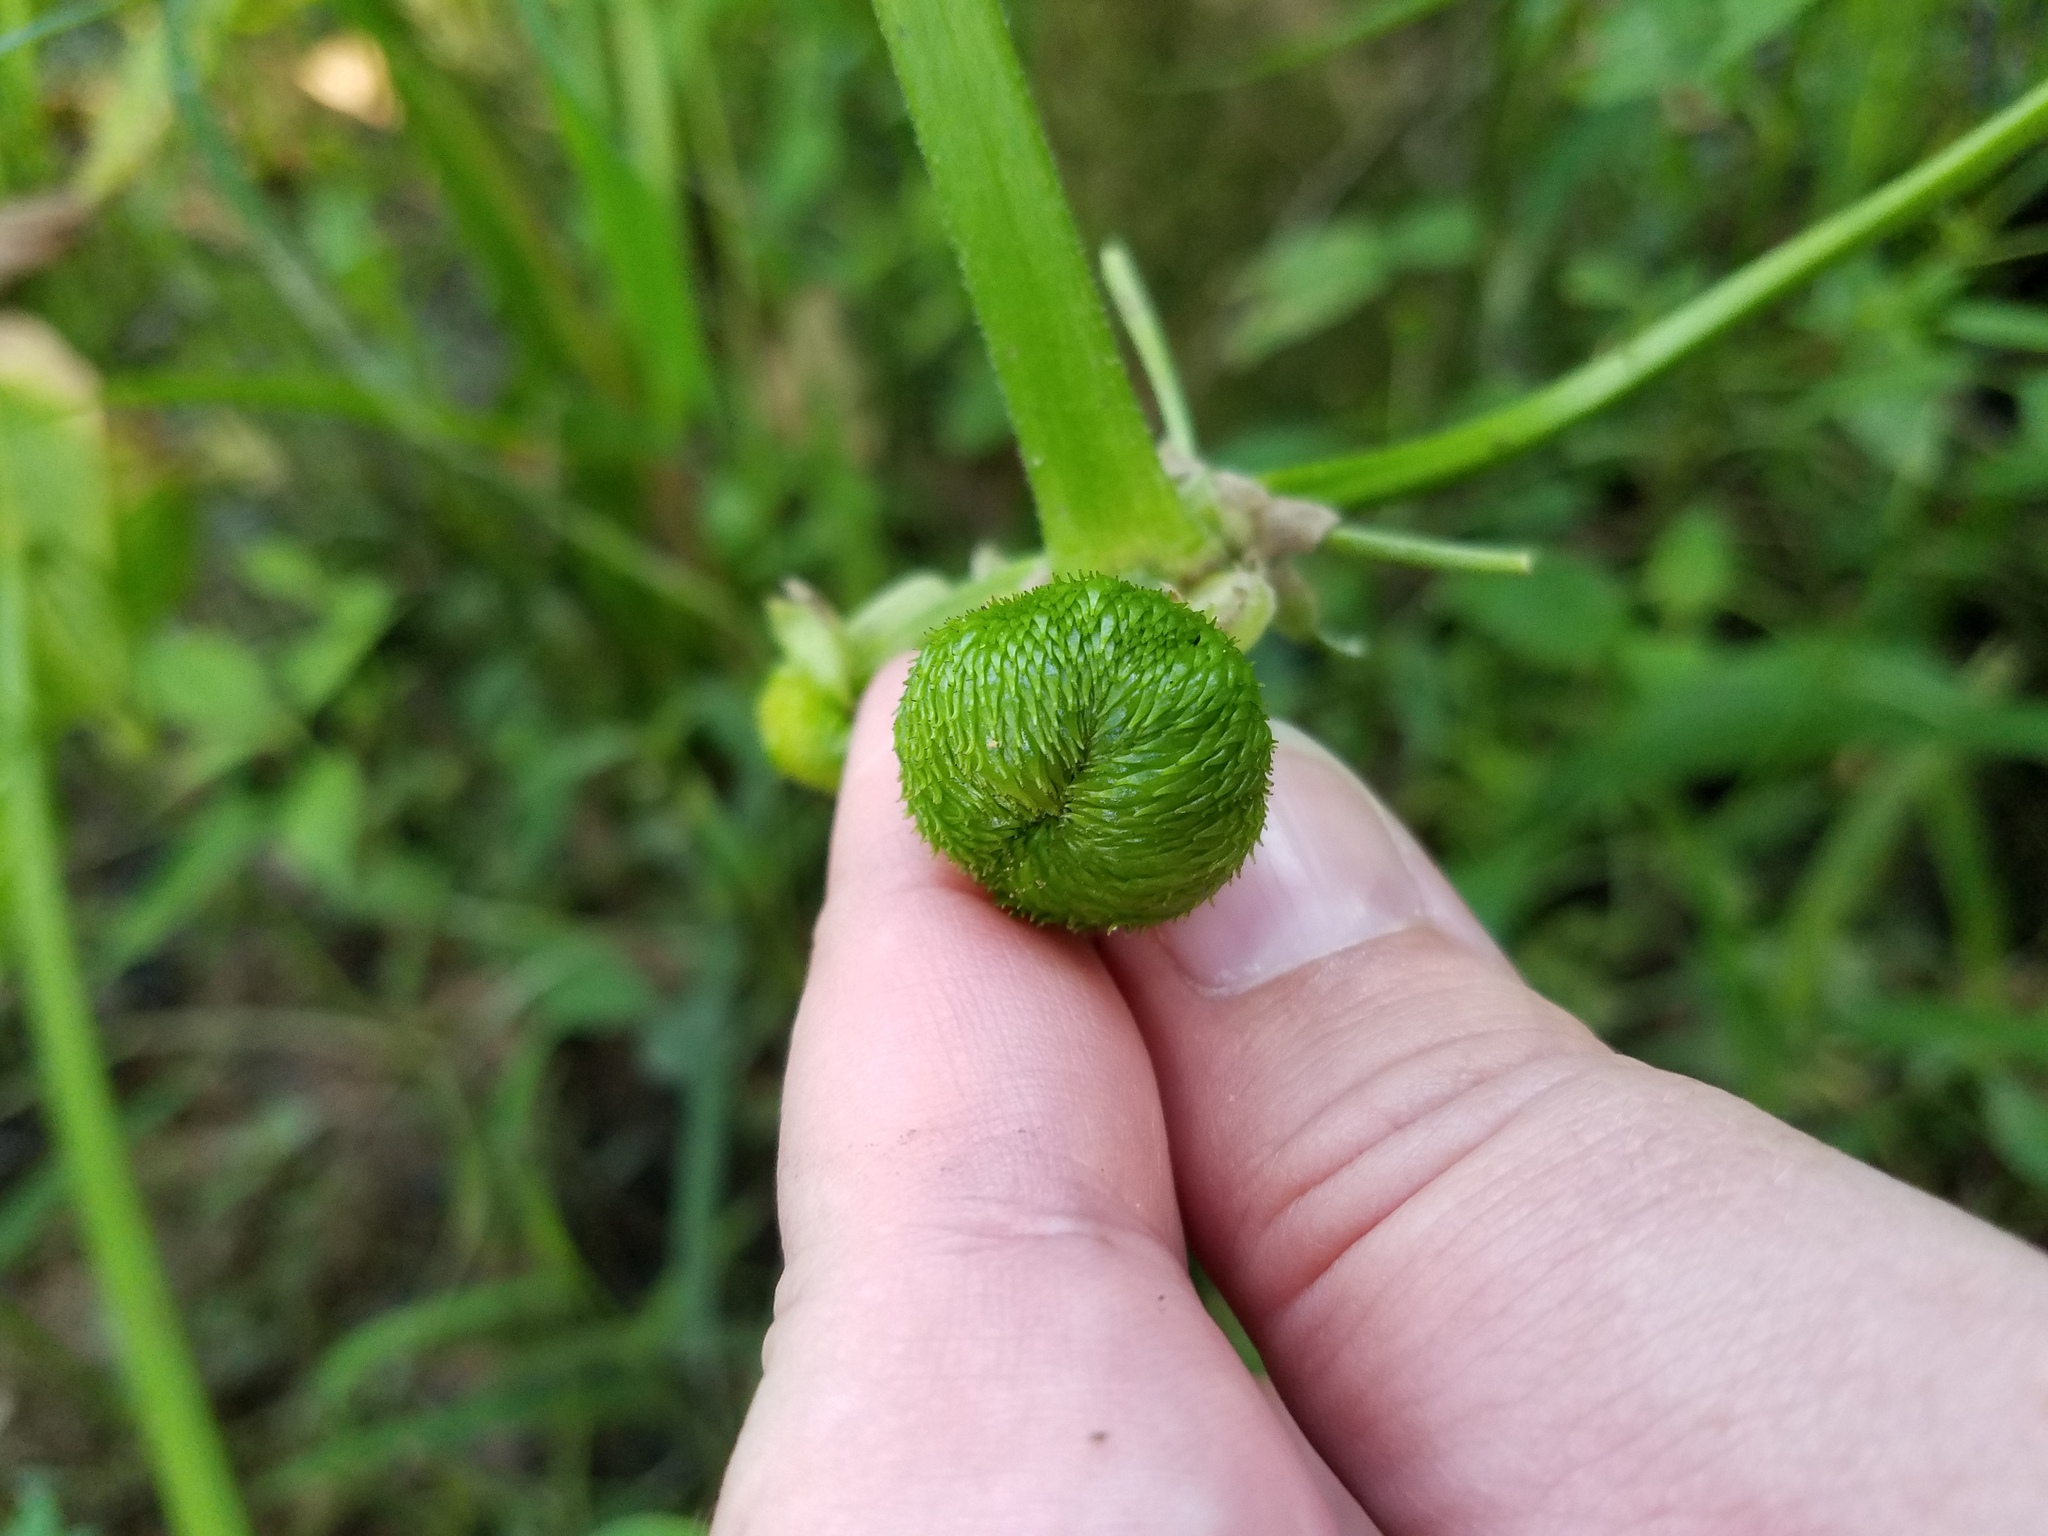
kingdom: Plantae
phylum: Tracheophyta
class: Liliopsida
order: Alismatales
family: Alismataceae
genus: Sagittaria
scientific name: Sagittaria latifolia
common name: Duck-potato
